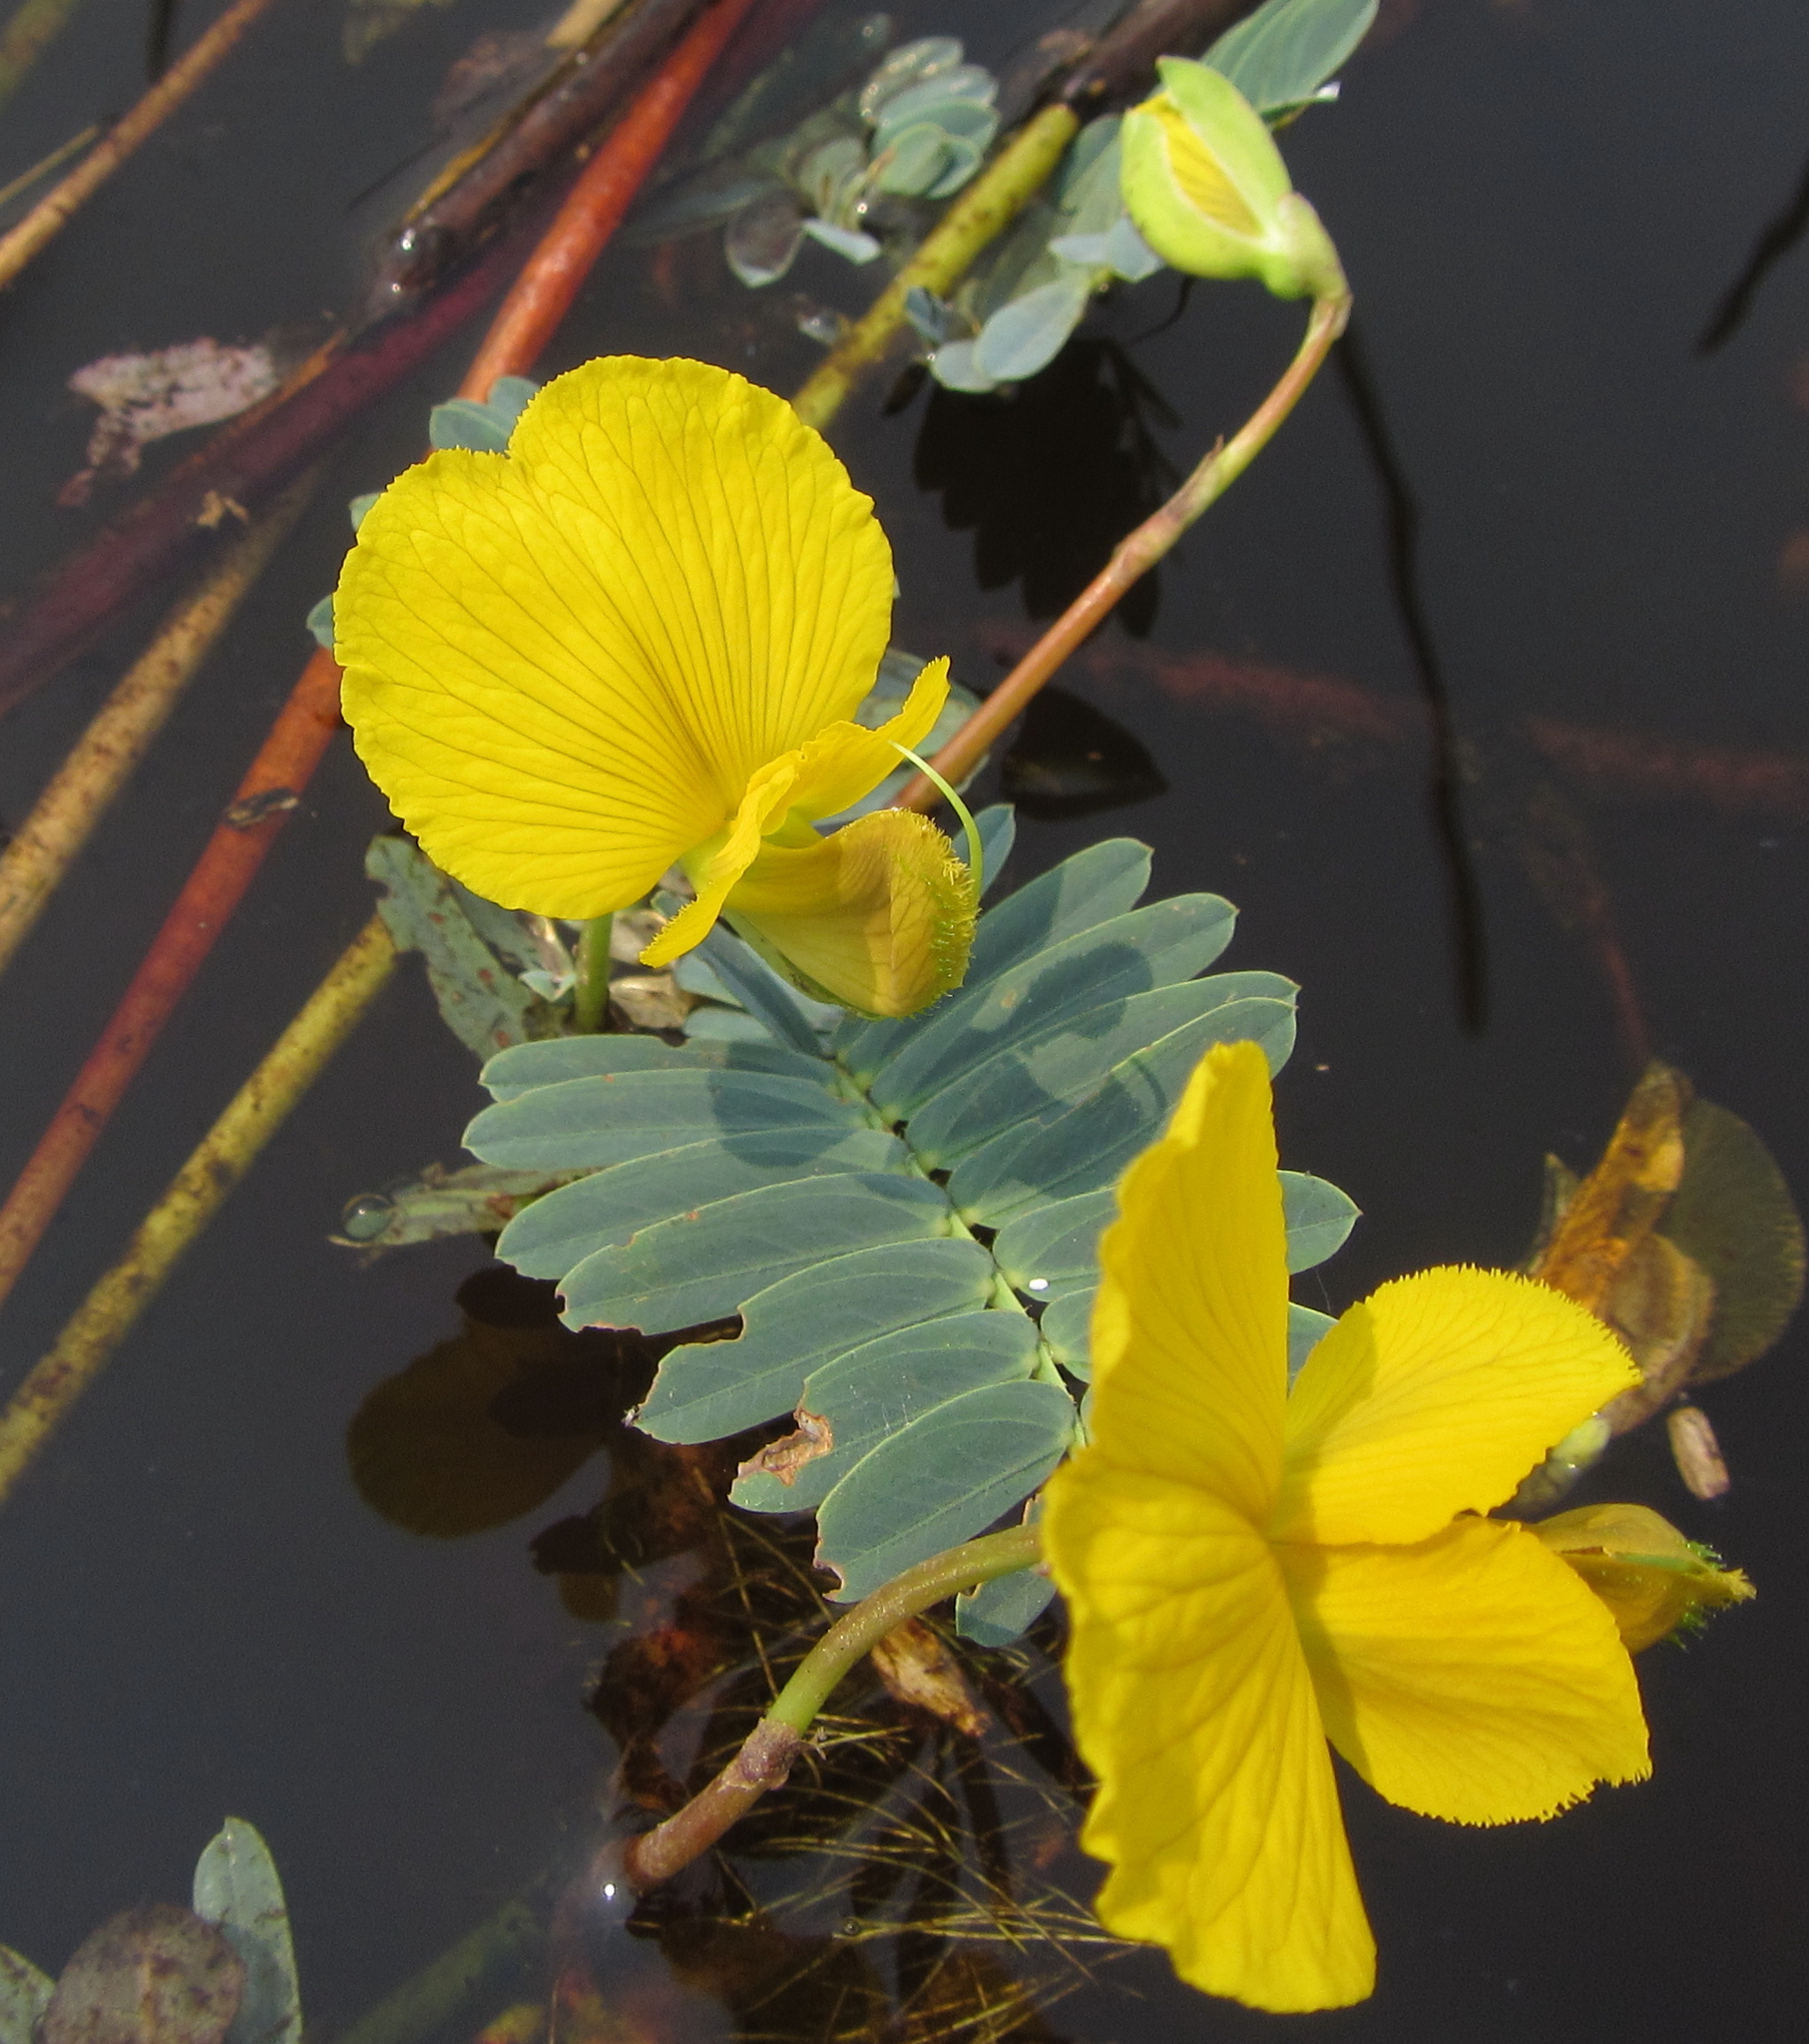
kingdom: Plantae
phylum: Tracheophyta
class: Magnoliopsida
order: Fabales
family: Fabaceae
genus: Aeschynomene
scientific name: Aeschynomene fluitans
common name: Giant water sensitive plant
